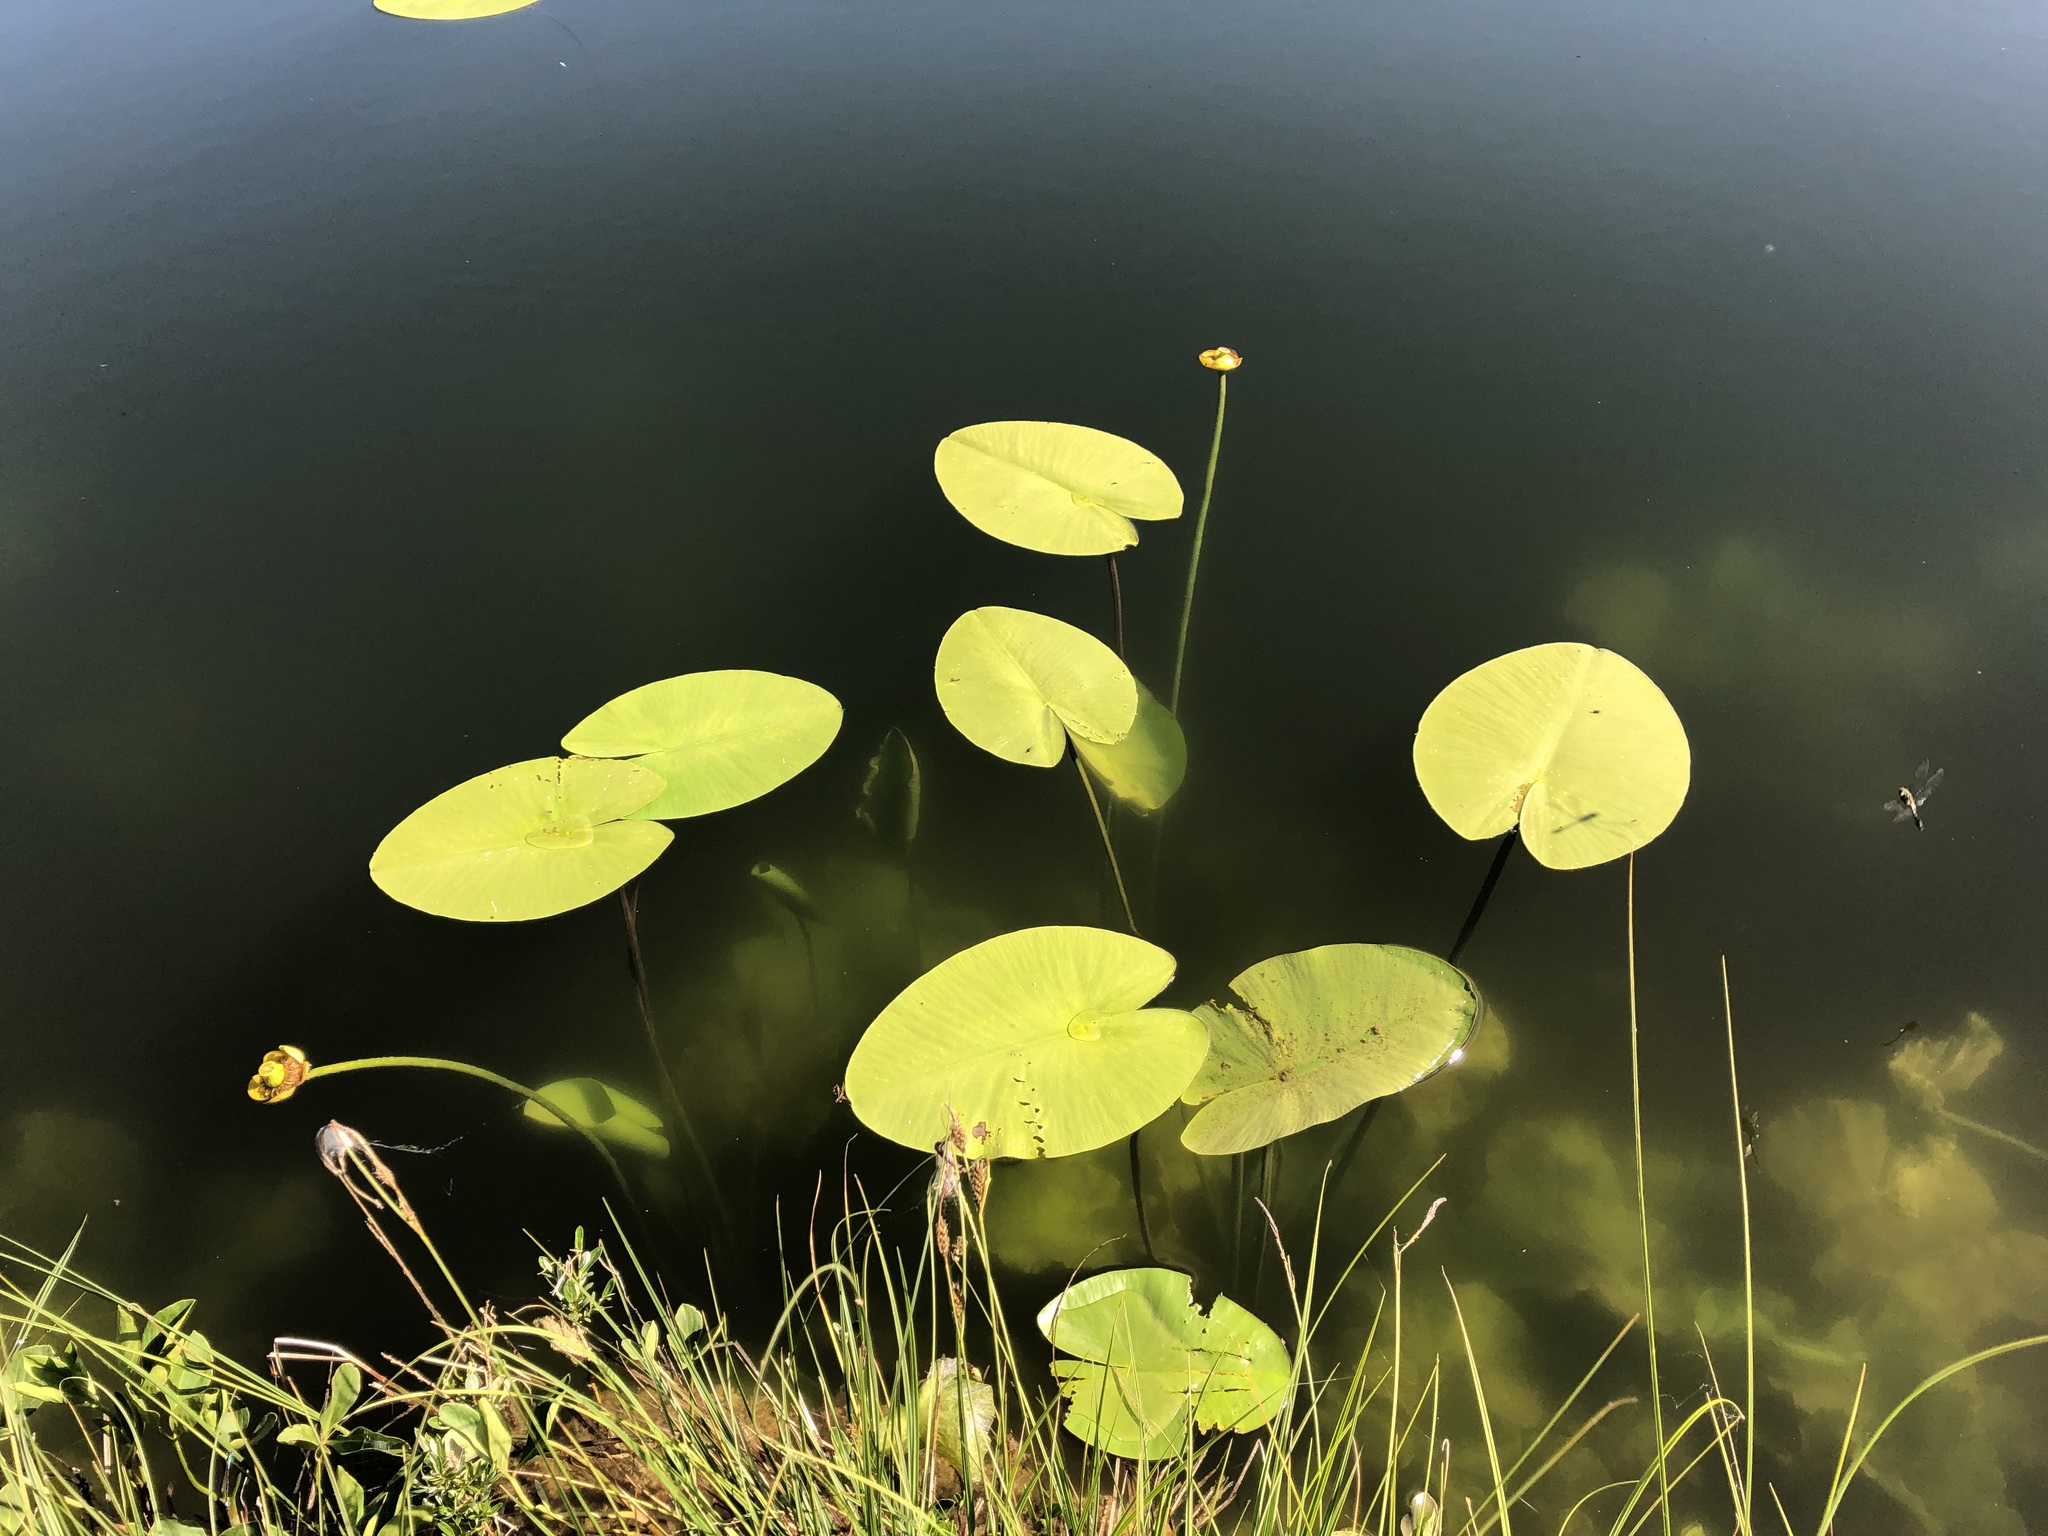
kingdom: Plantae
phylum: Tracheophyta
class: Magnoliopsida
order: Nymphaeales
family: Nymphaeaceae
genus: Nuphar
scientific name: Nuphar lutea
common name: Yellow water-lily
